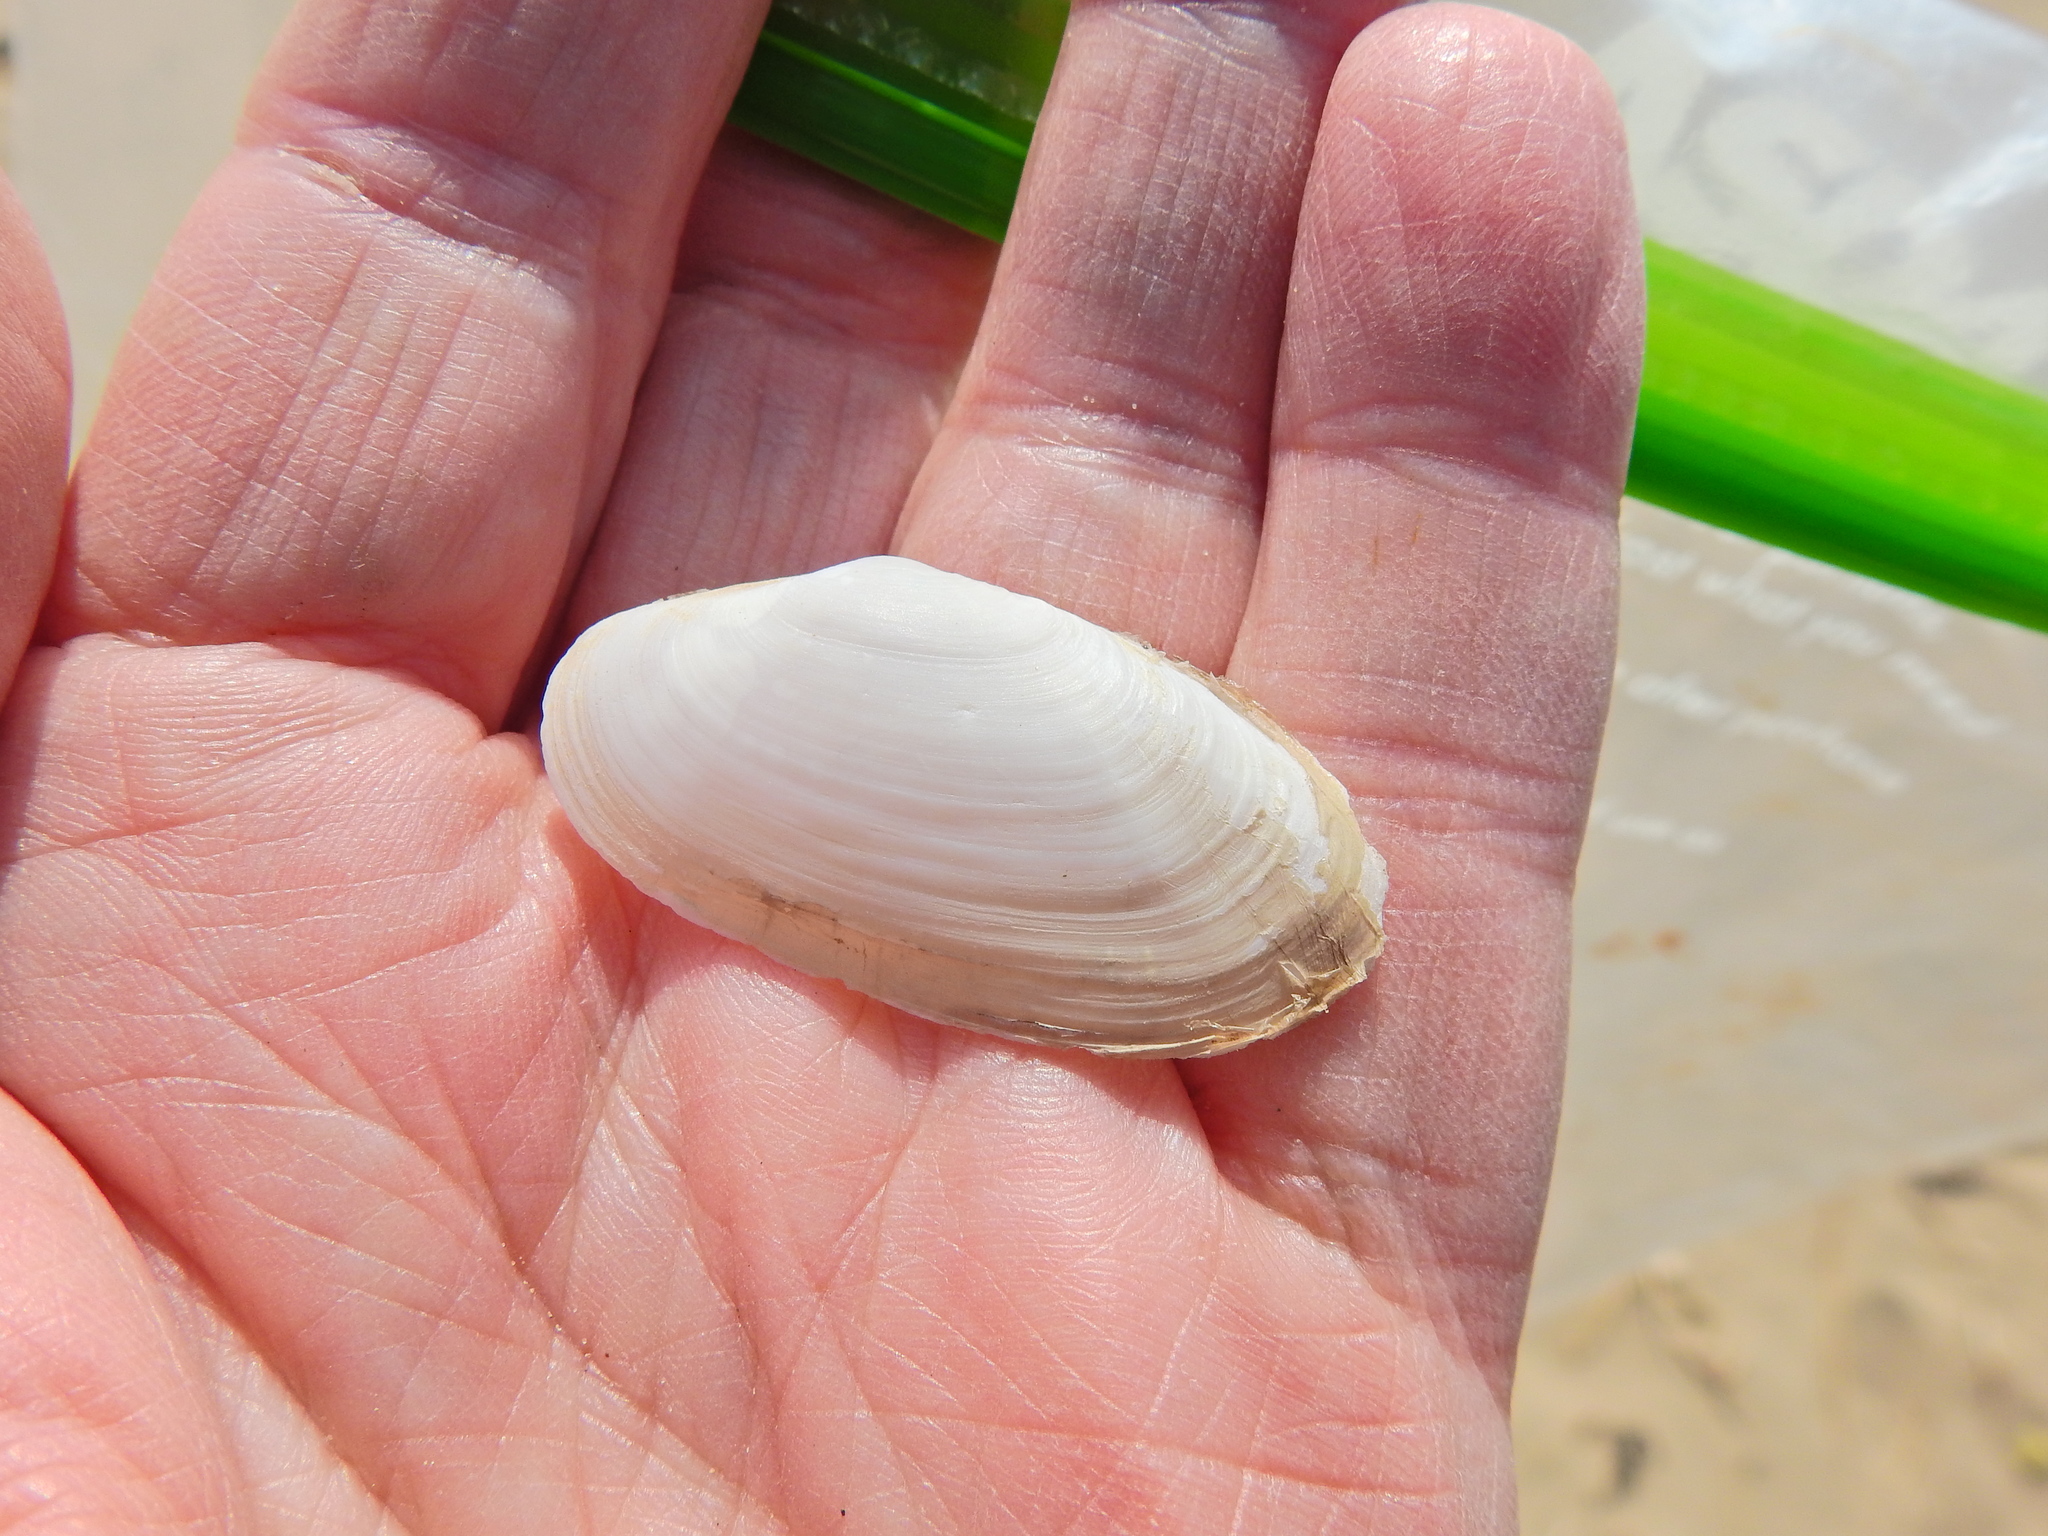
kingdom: Animalia
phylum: Mollusca
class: Bivalvia
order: Venerida
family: Mactridae
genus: Lutraria
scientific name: Lutraria lutraria
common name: Common otter shell
